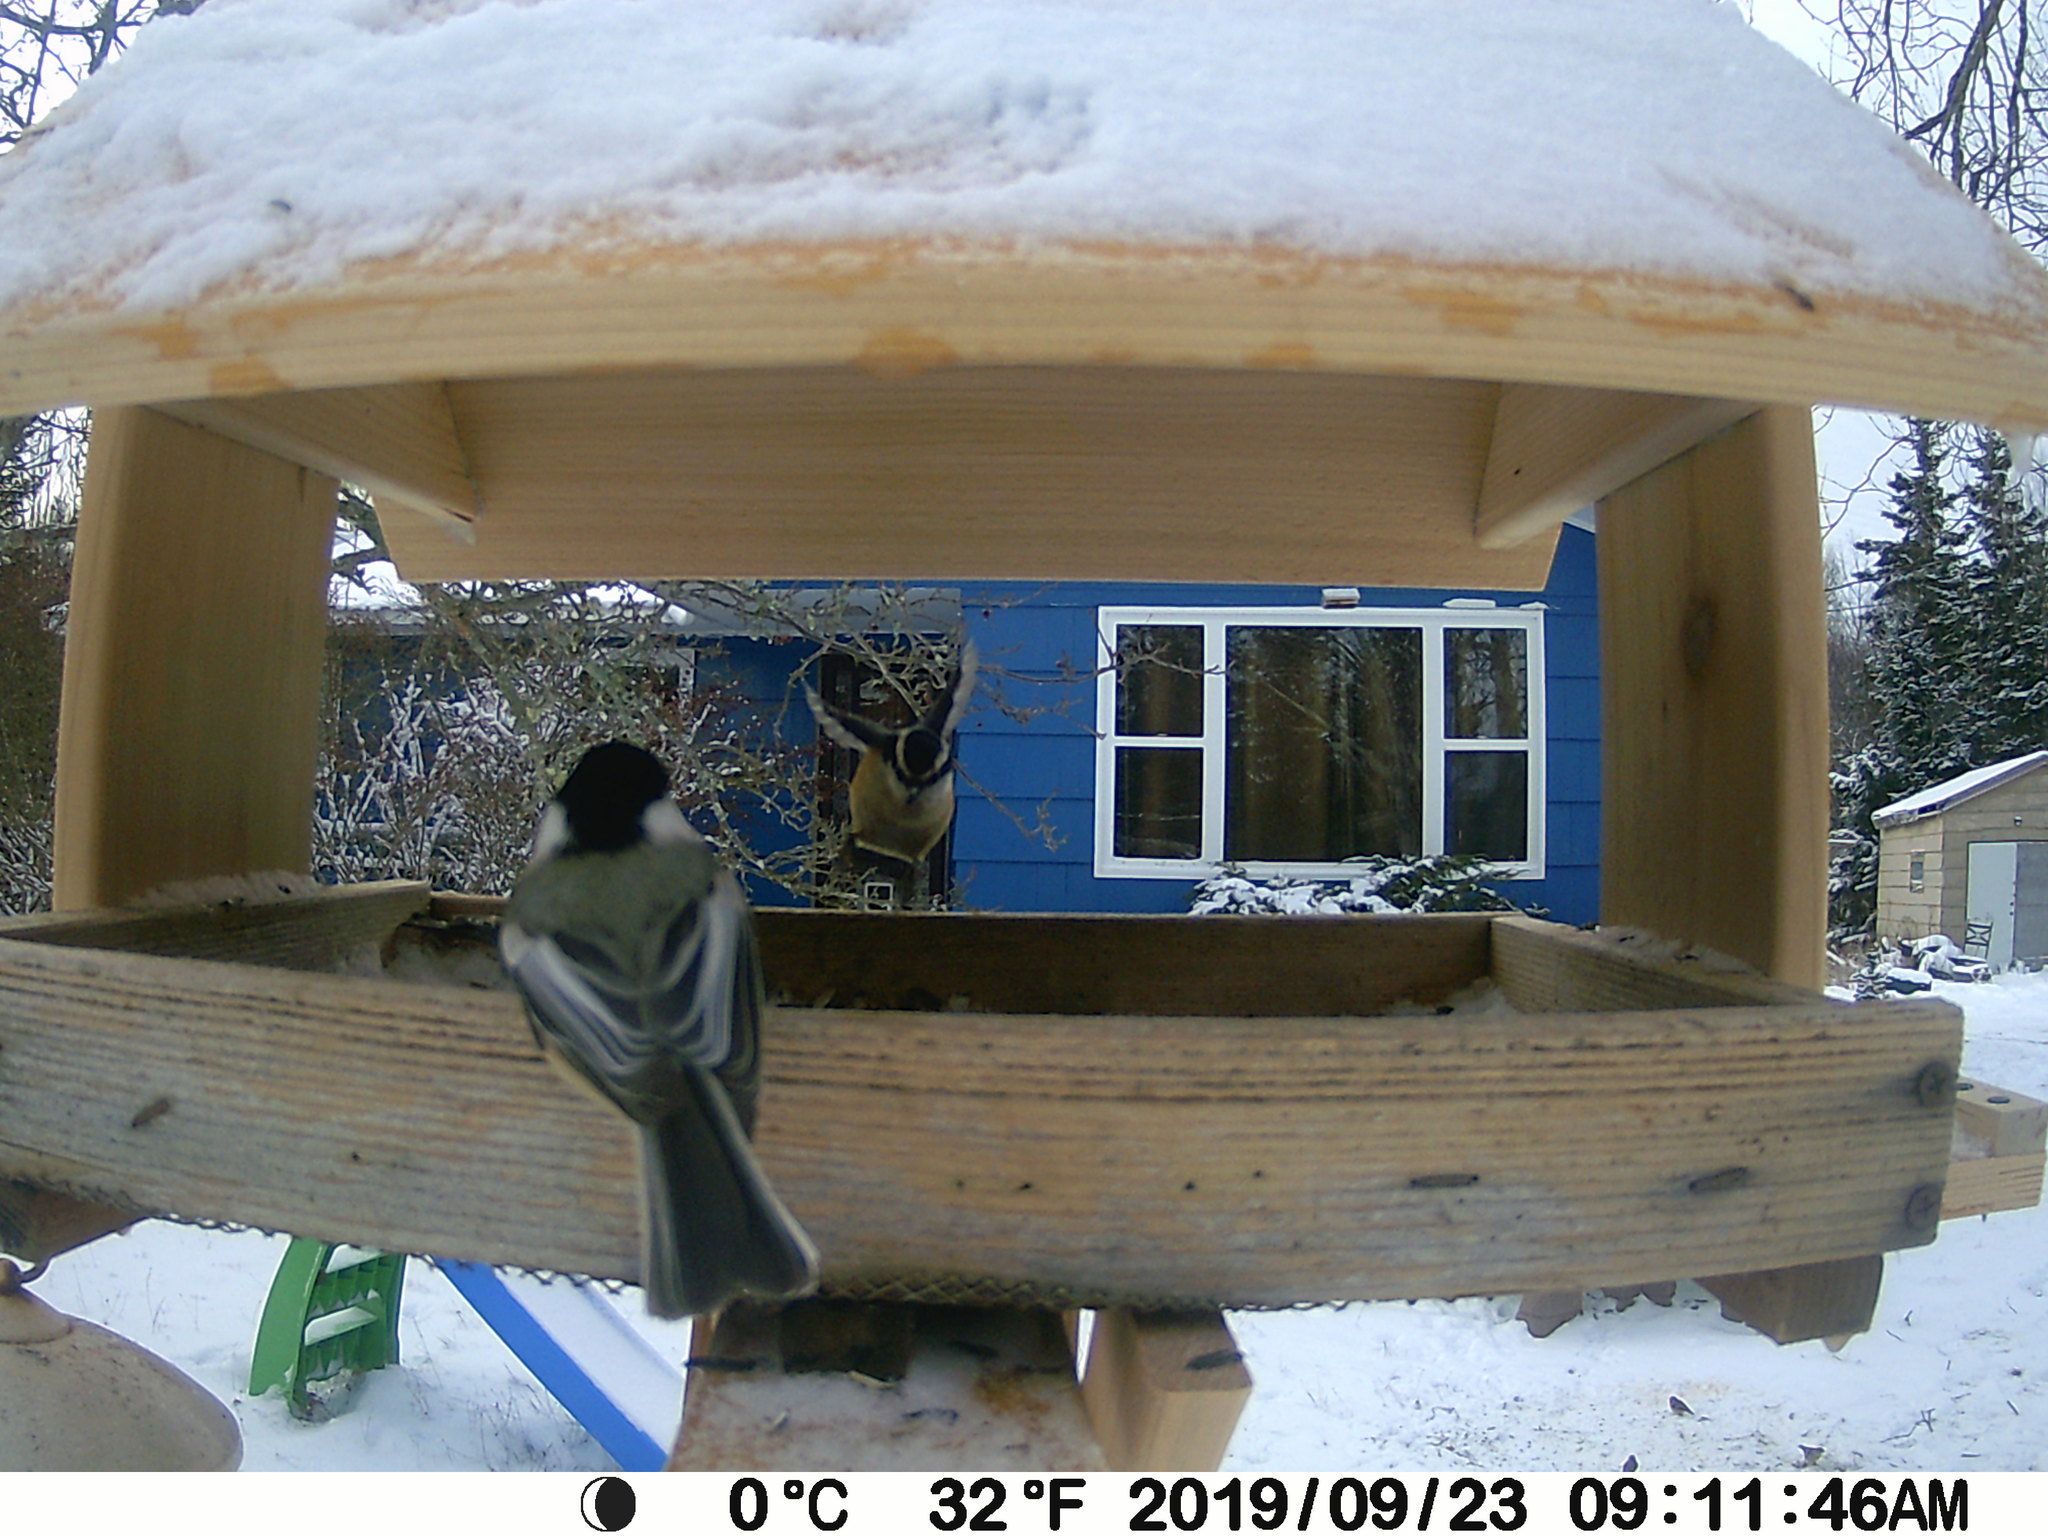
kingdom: Animalia
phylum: Chordata
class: Aves
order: Passeriformes
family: Sittidae
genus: Sitta
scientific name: Sitta canadensis
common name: Red-breasted nuthatch
